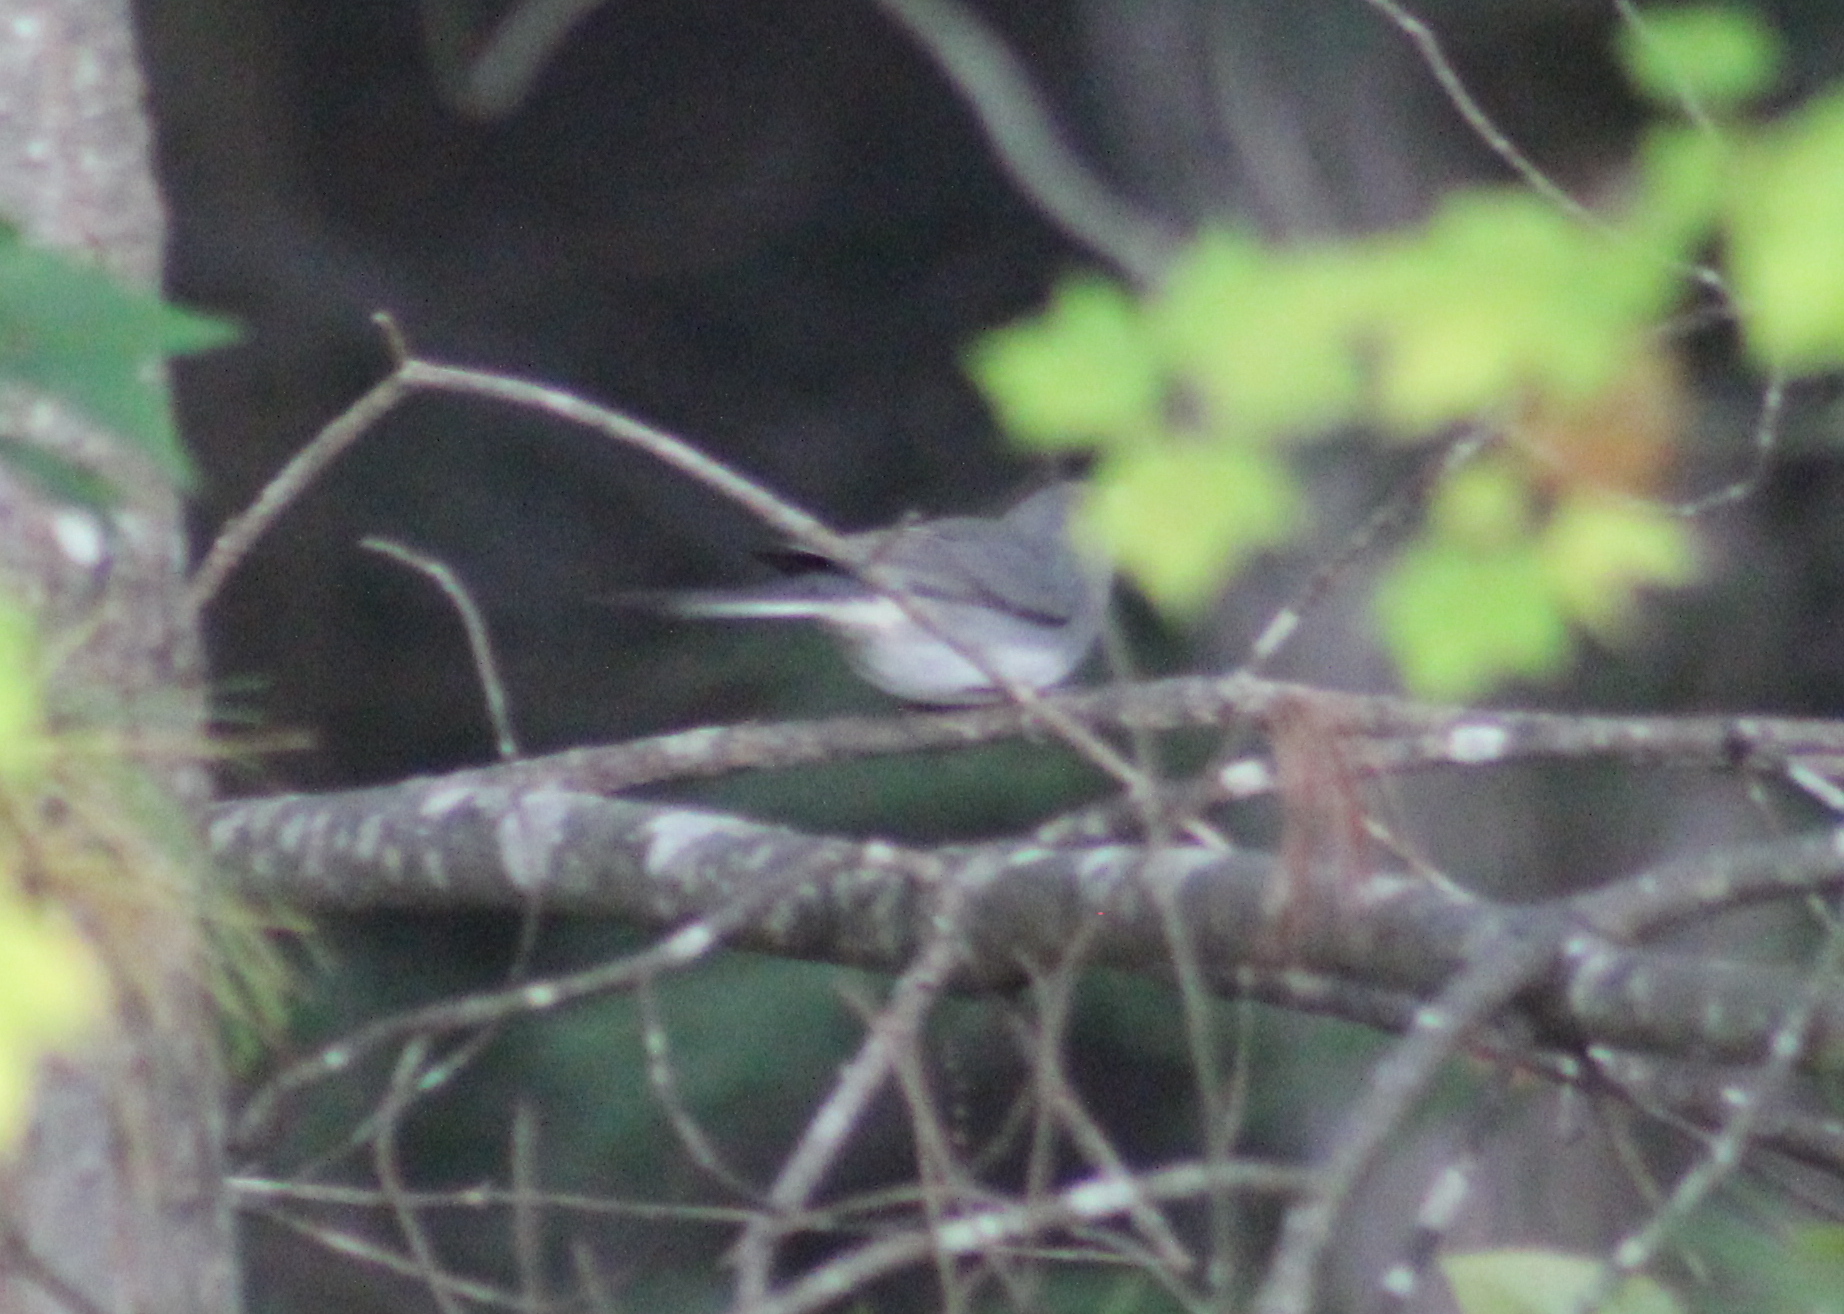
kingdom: Animalia
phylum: Chordata
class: Aves
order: Passeriformes
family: Passerellidae
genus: Junco
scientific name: Junco hyemalis
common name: Dark-eyed junco
